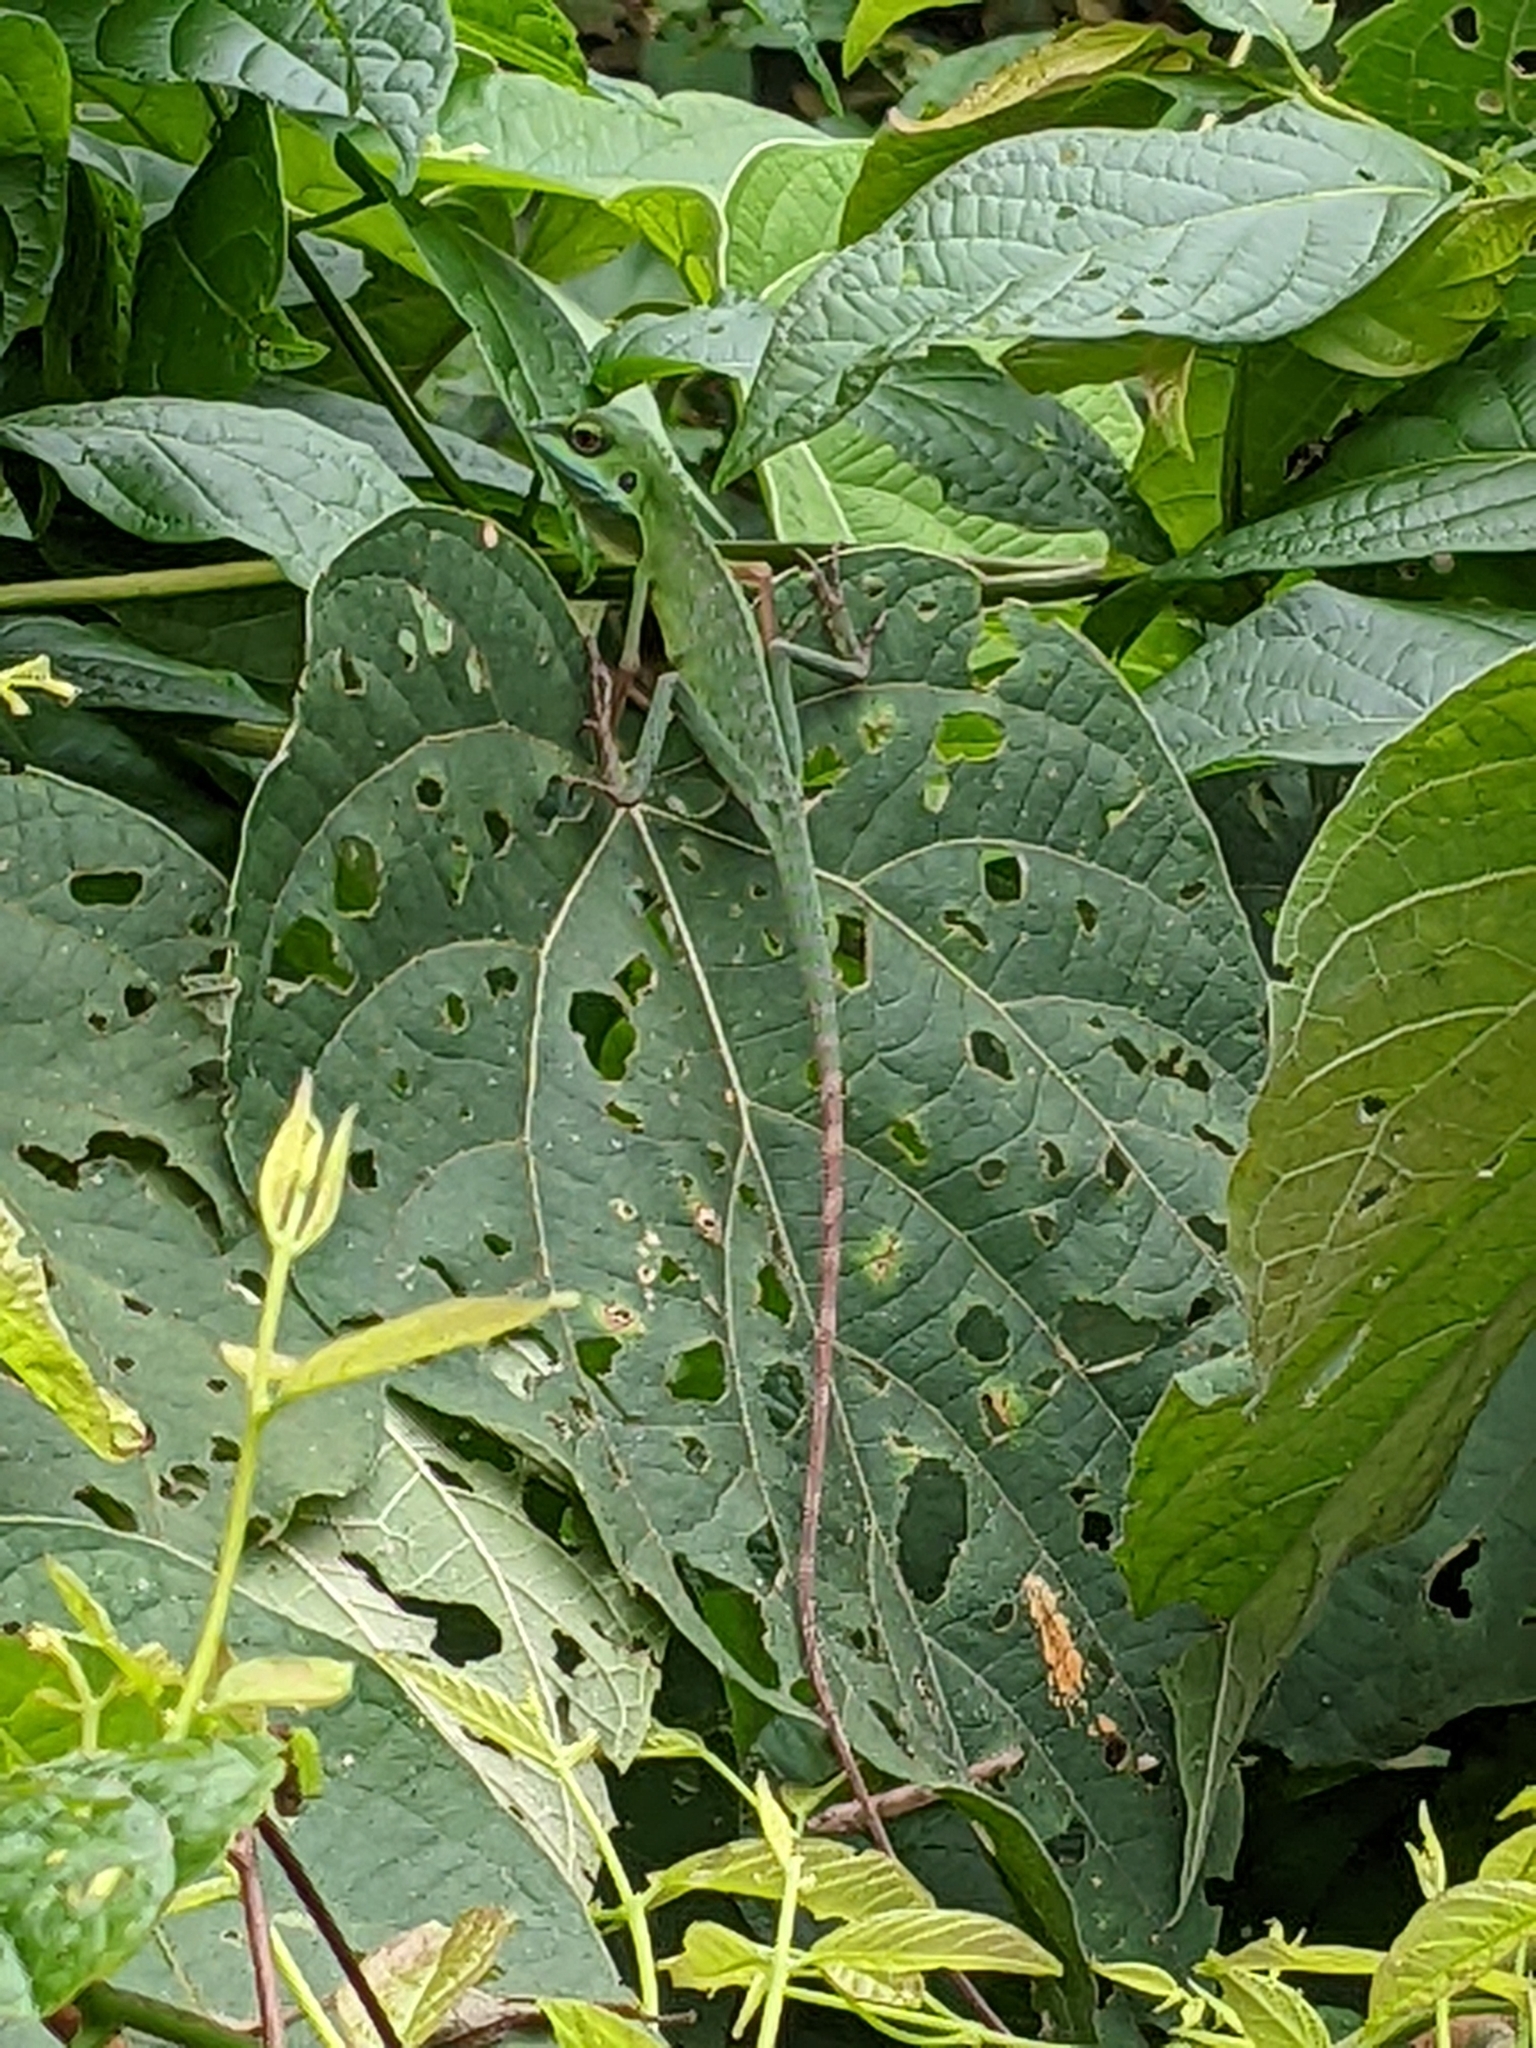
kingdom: Animalia
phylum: Chordata
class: Squamata
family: Agamidae
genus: Bronchocela
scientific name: Bronchocela cristatella
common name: Green crested lizard
